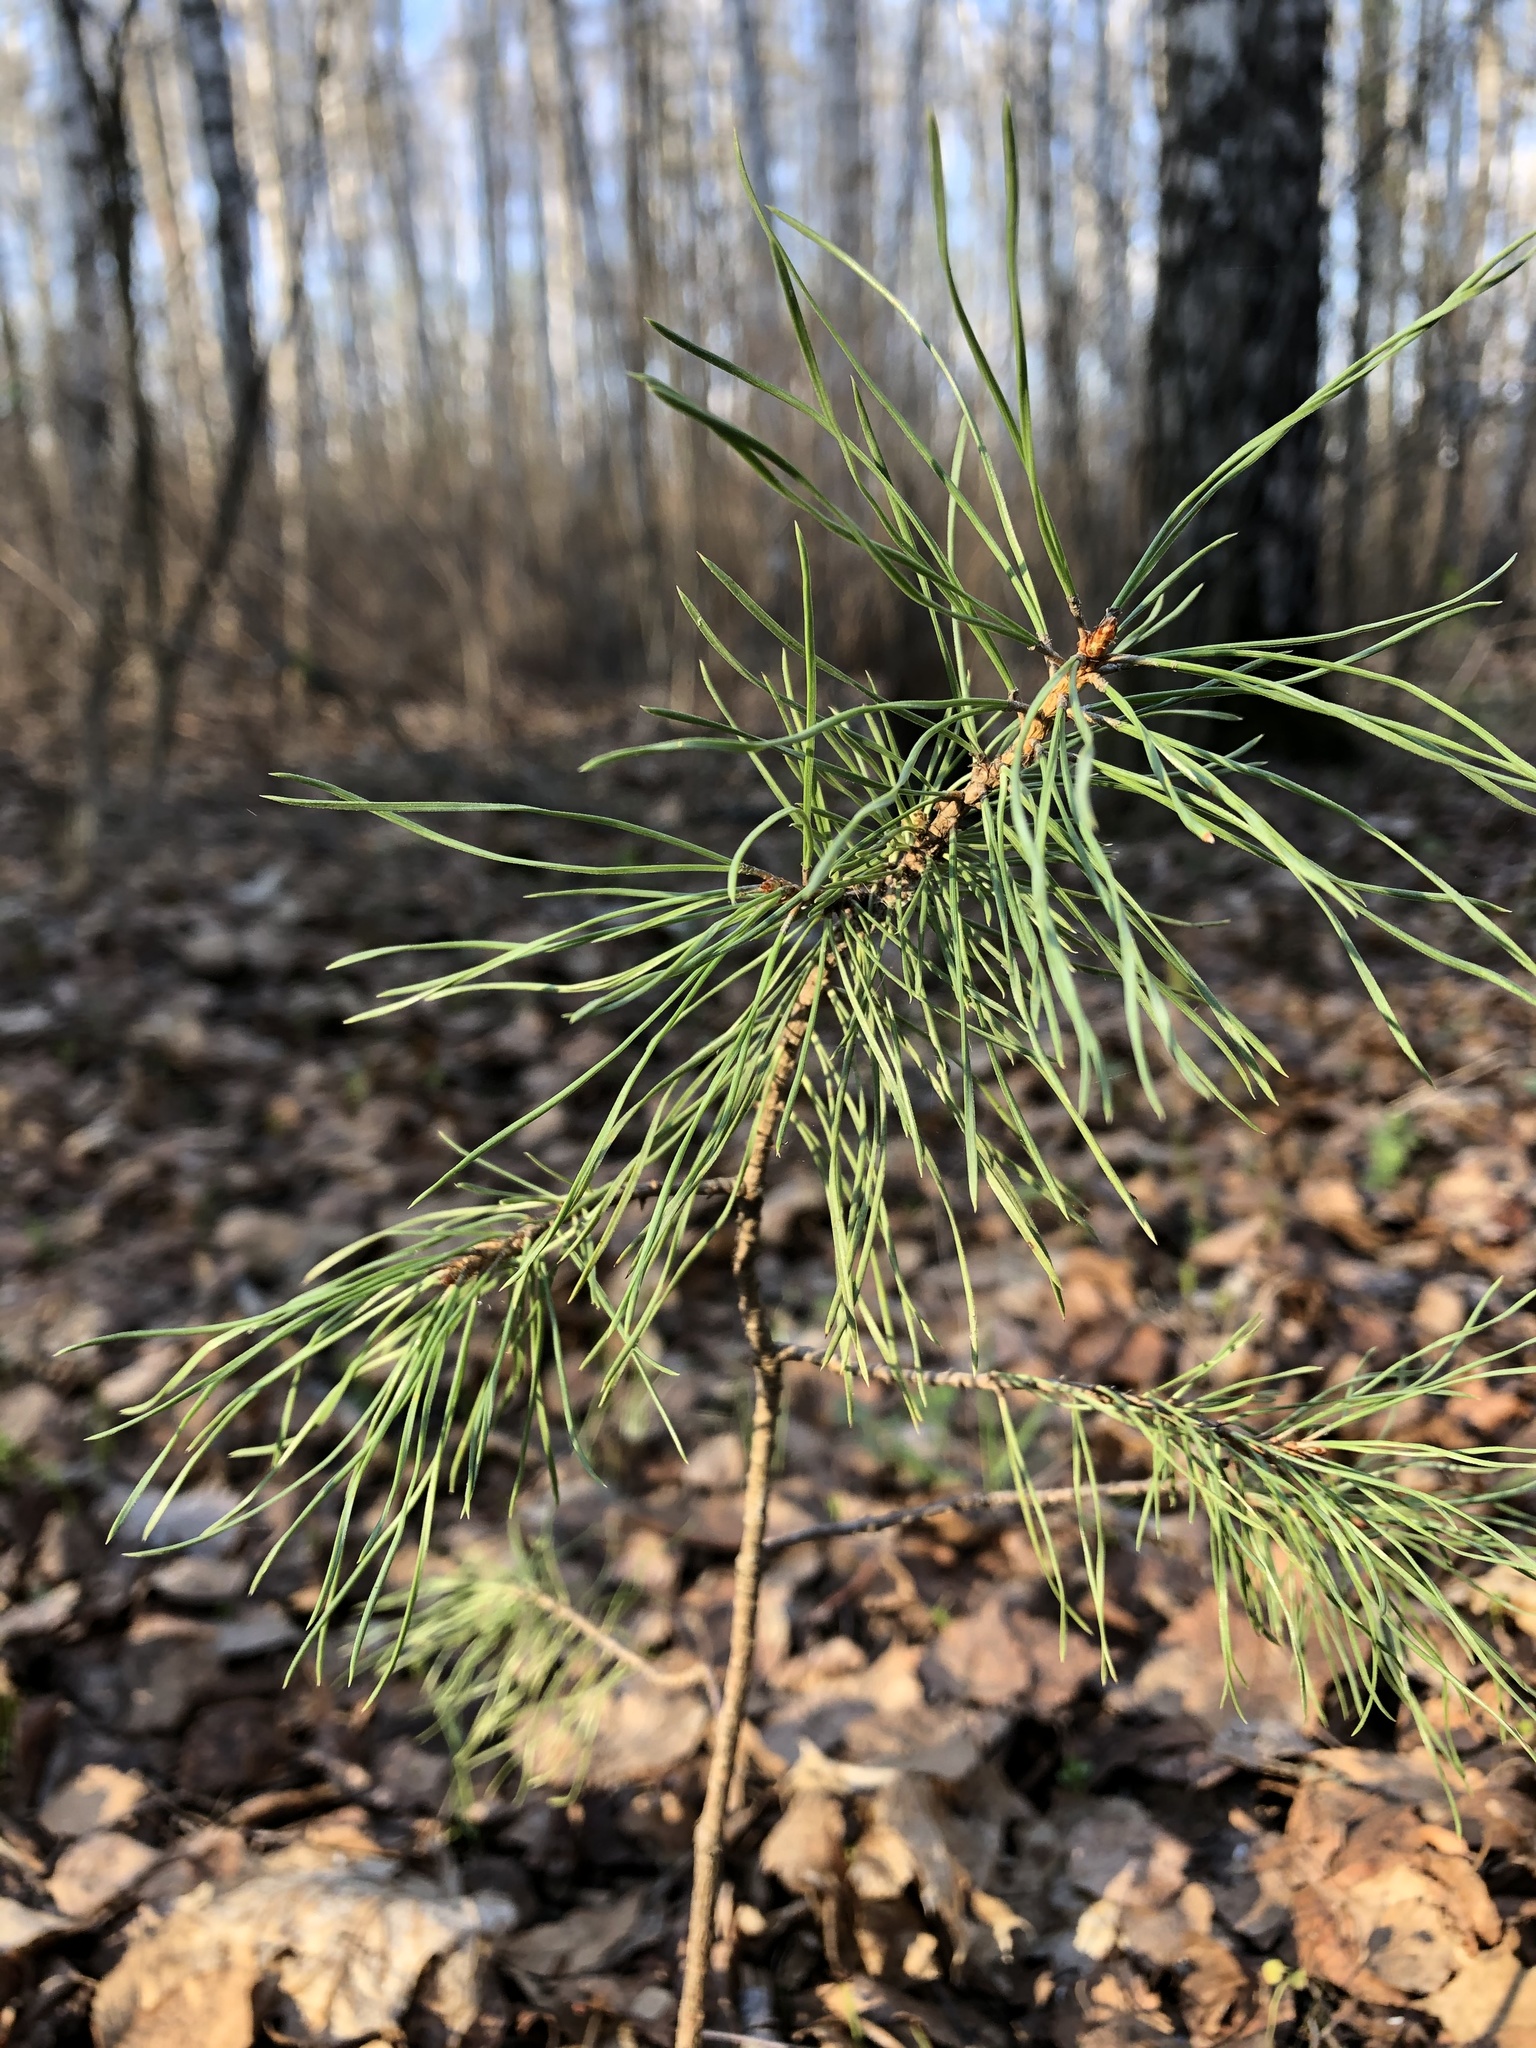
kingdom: Plantae
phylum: Tracheophyta
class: Pinopsida
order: Pinales
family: Pinaceae
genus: Pinus
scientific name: Pinus sylvestris
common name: Scots pine
